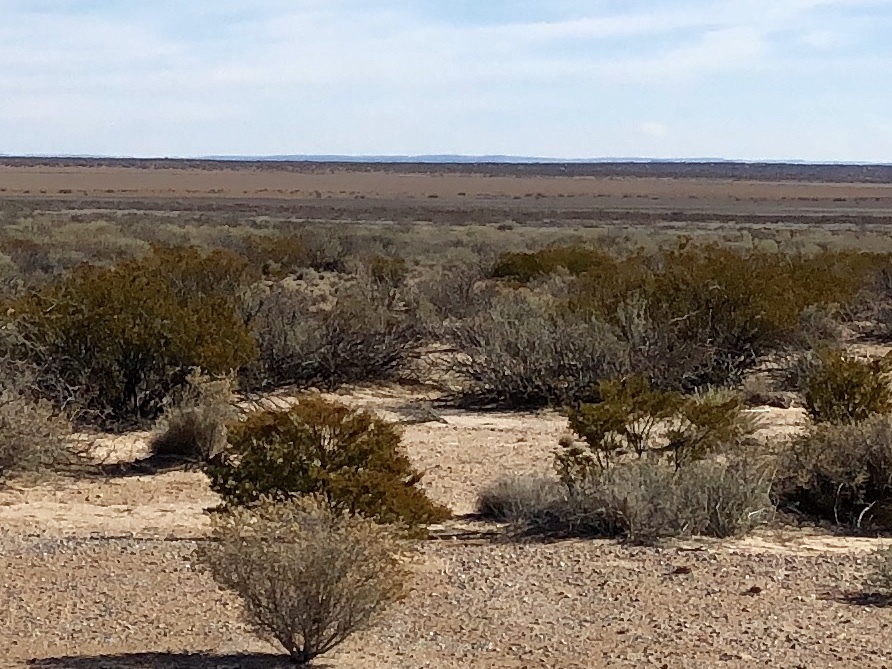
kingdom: Plantae
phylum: Tracheophyta
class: Magnoliopsida
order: Zygophyllales
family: Zygophyllaceae
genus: Larrea
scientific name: Larrea tridentata
